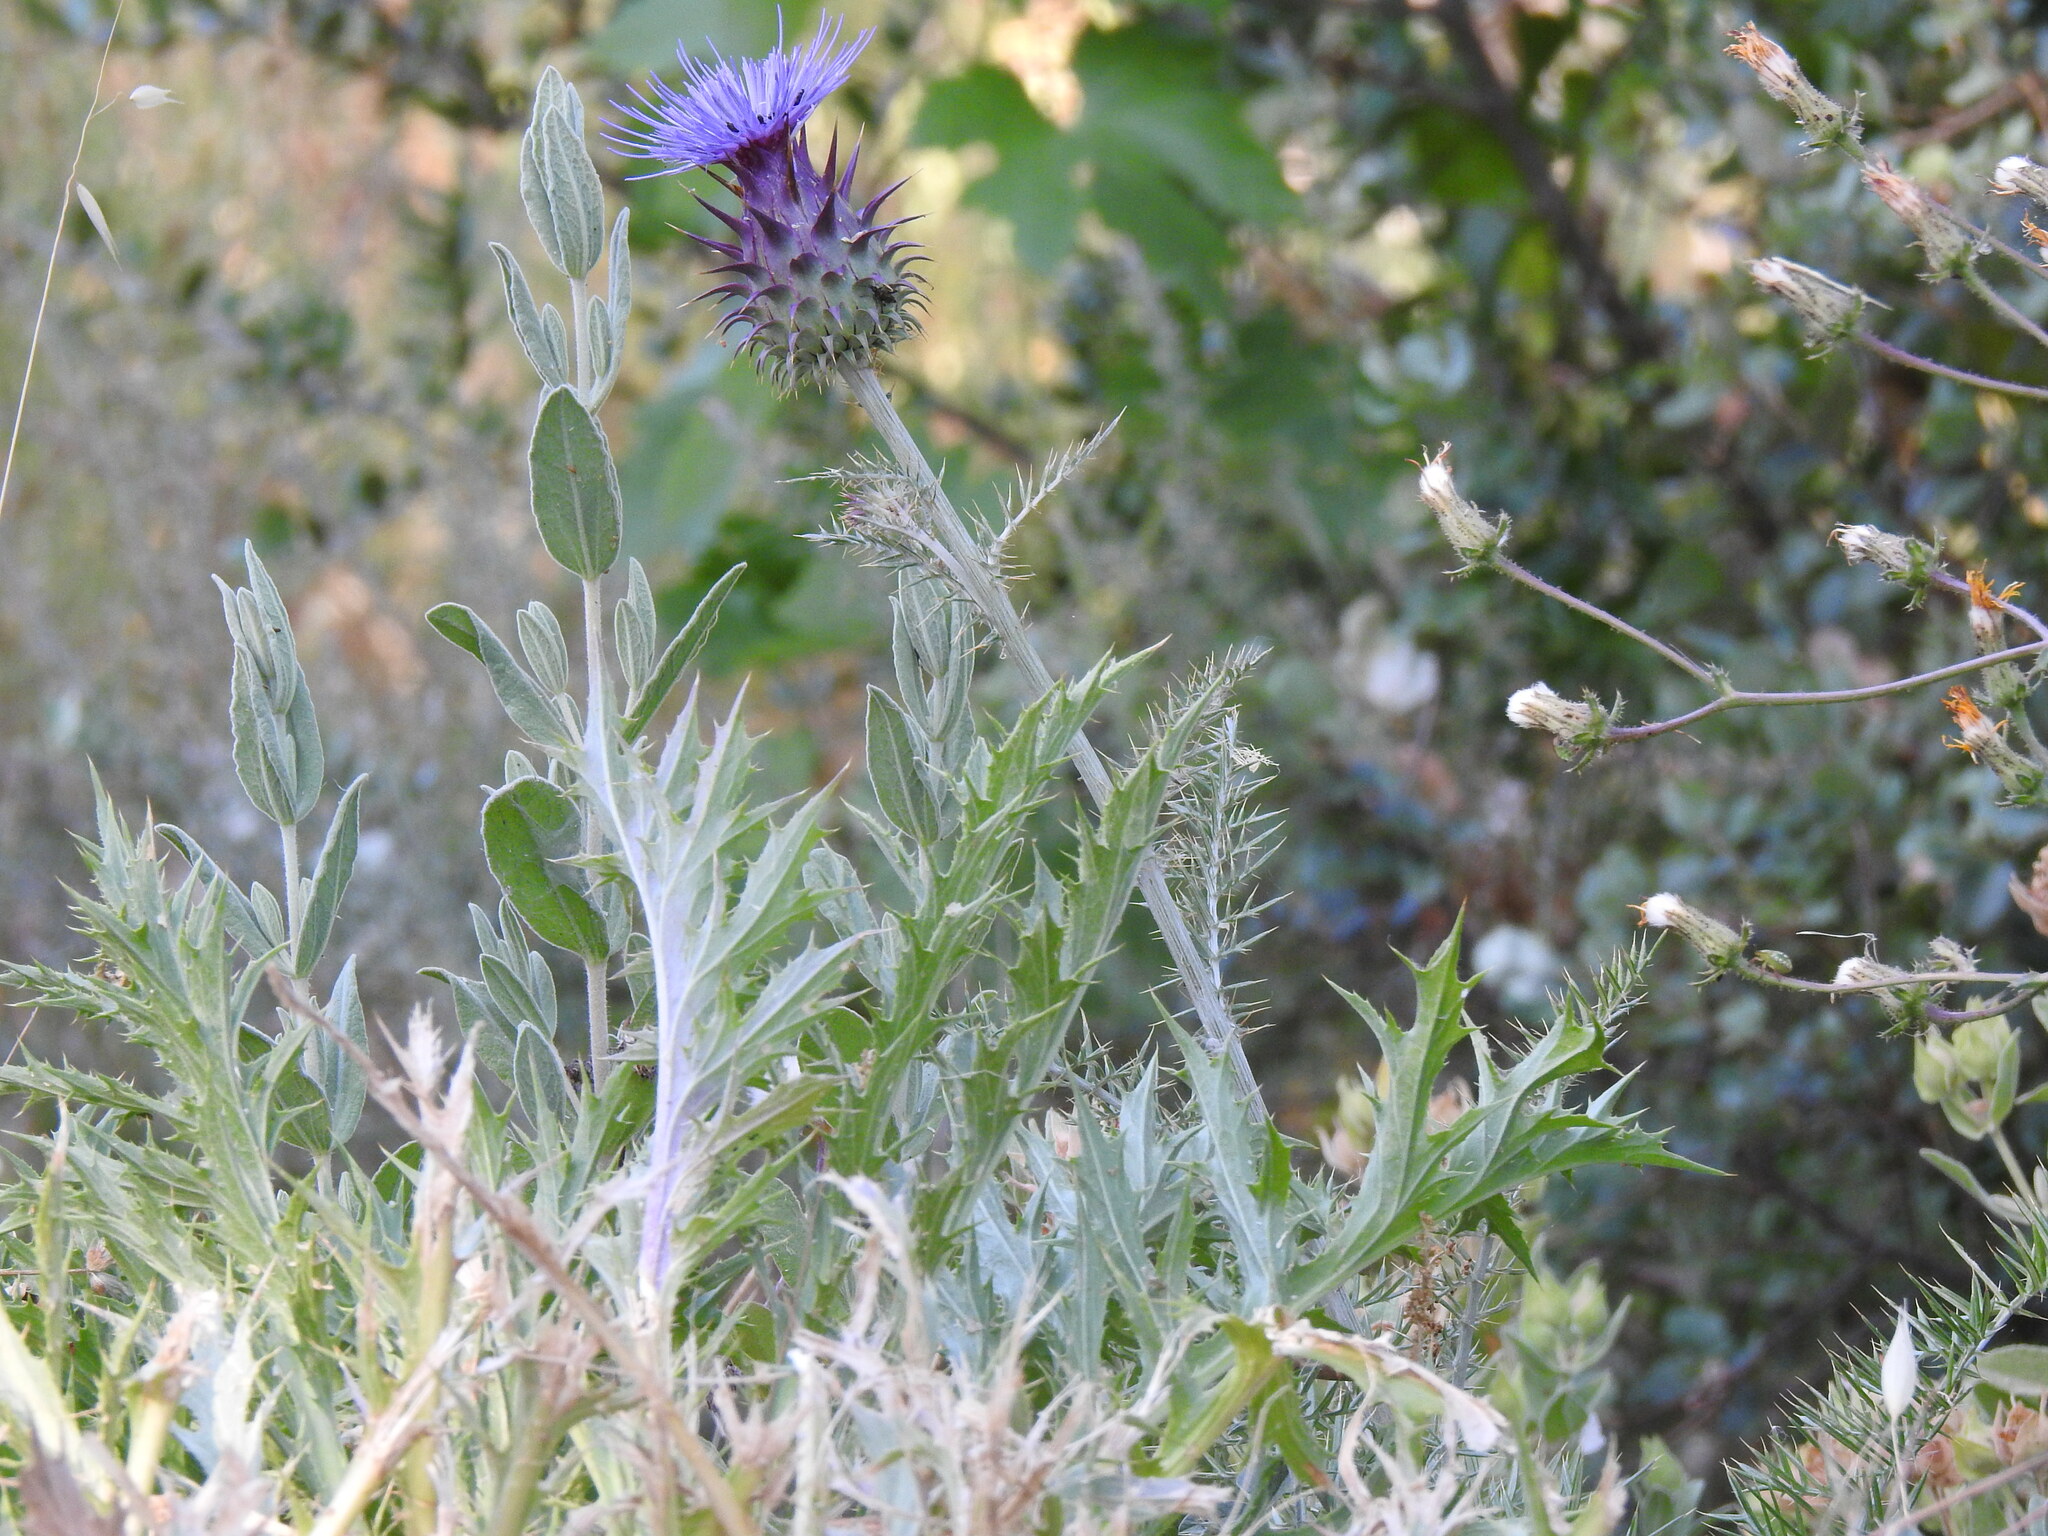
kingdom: Plantae
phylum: Tracheophyta
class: Magnoliopsida
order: Asterales
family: Asteraceae
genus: Cynara
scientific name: Cynara humilis
